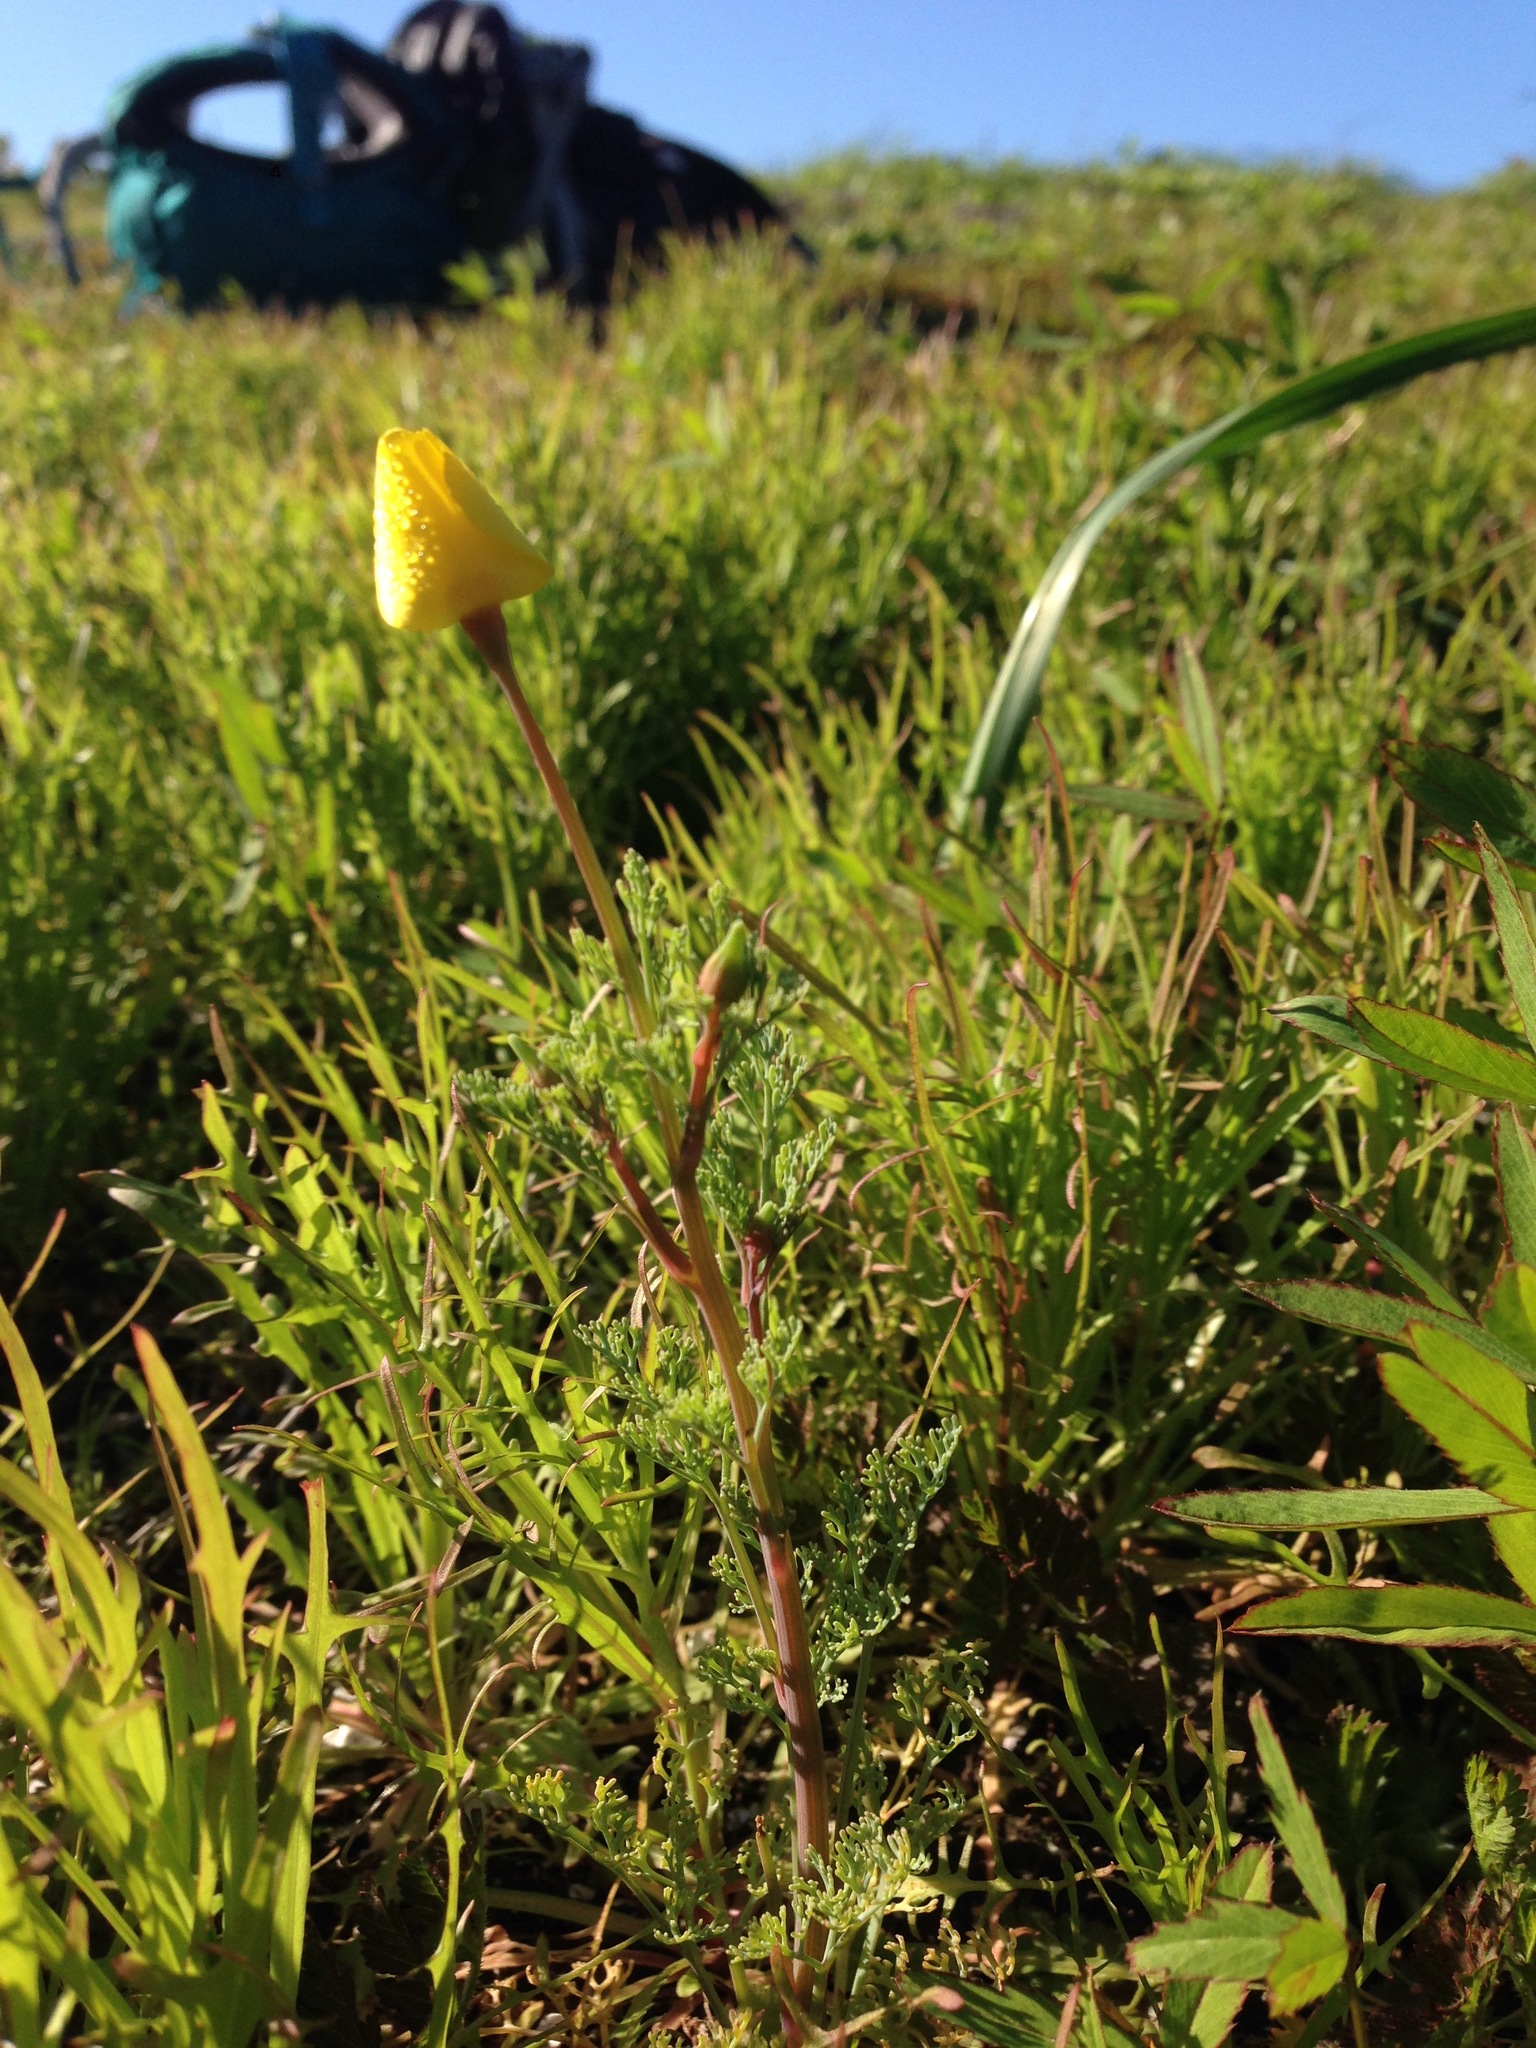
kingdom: Plantae
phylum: Tracheophyta
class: Magnoliopsida
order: Ranunculales
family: Papaveraceae
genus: Eschscholzia
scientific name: Eschscholzia ramosa
